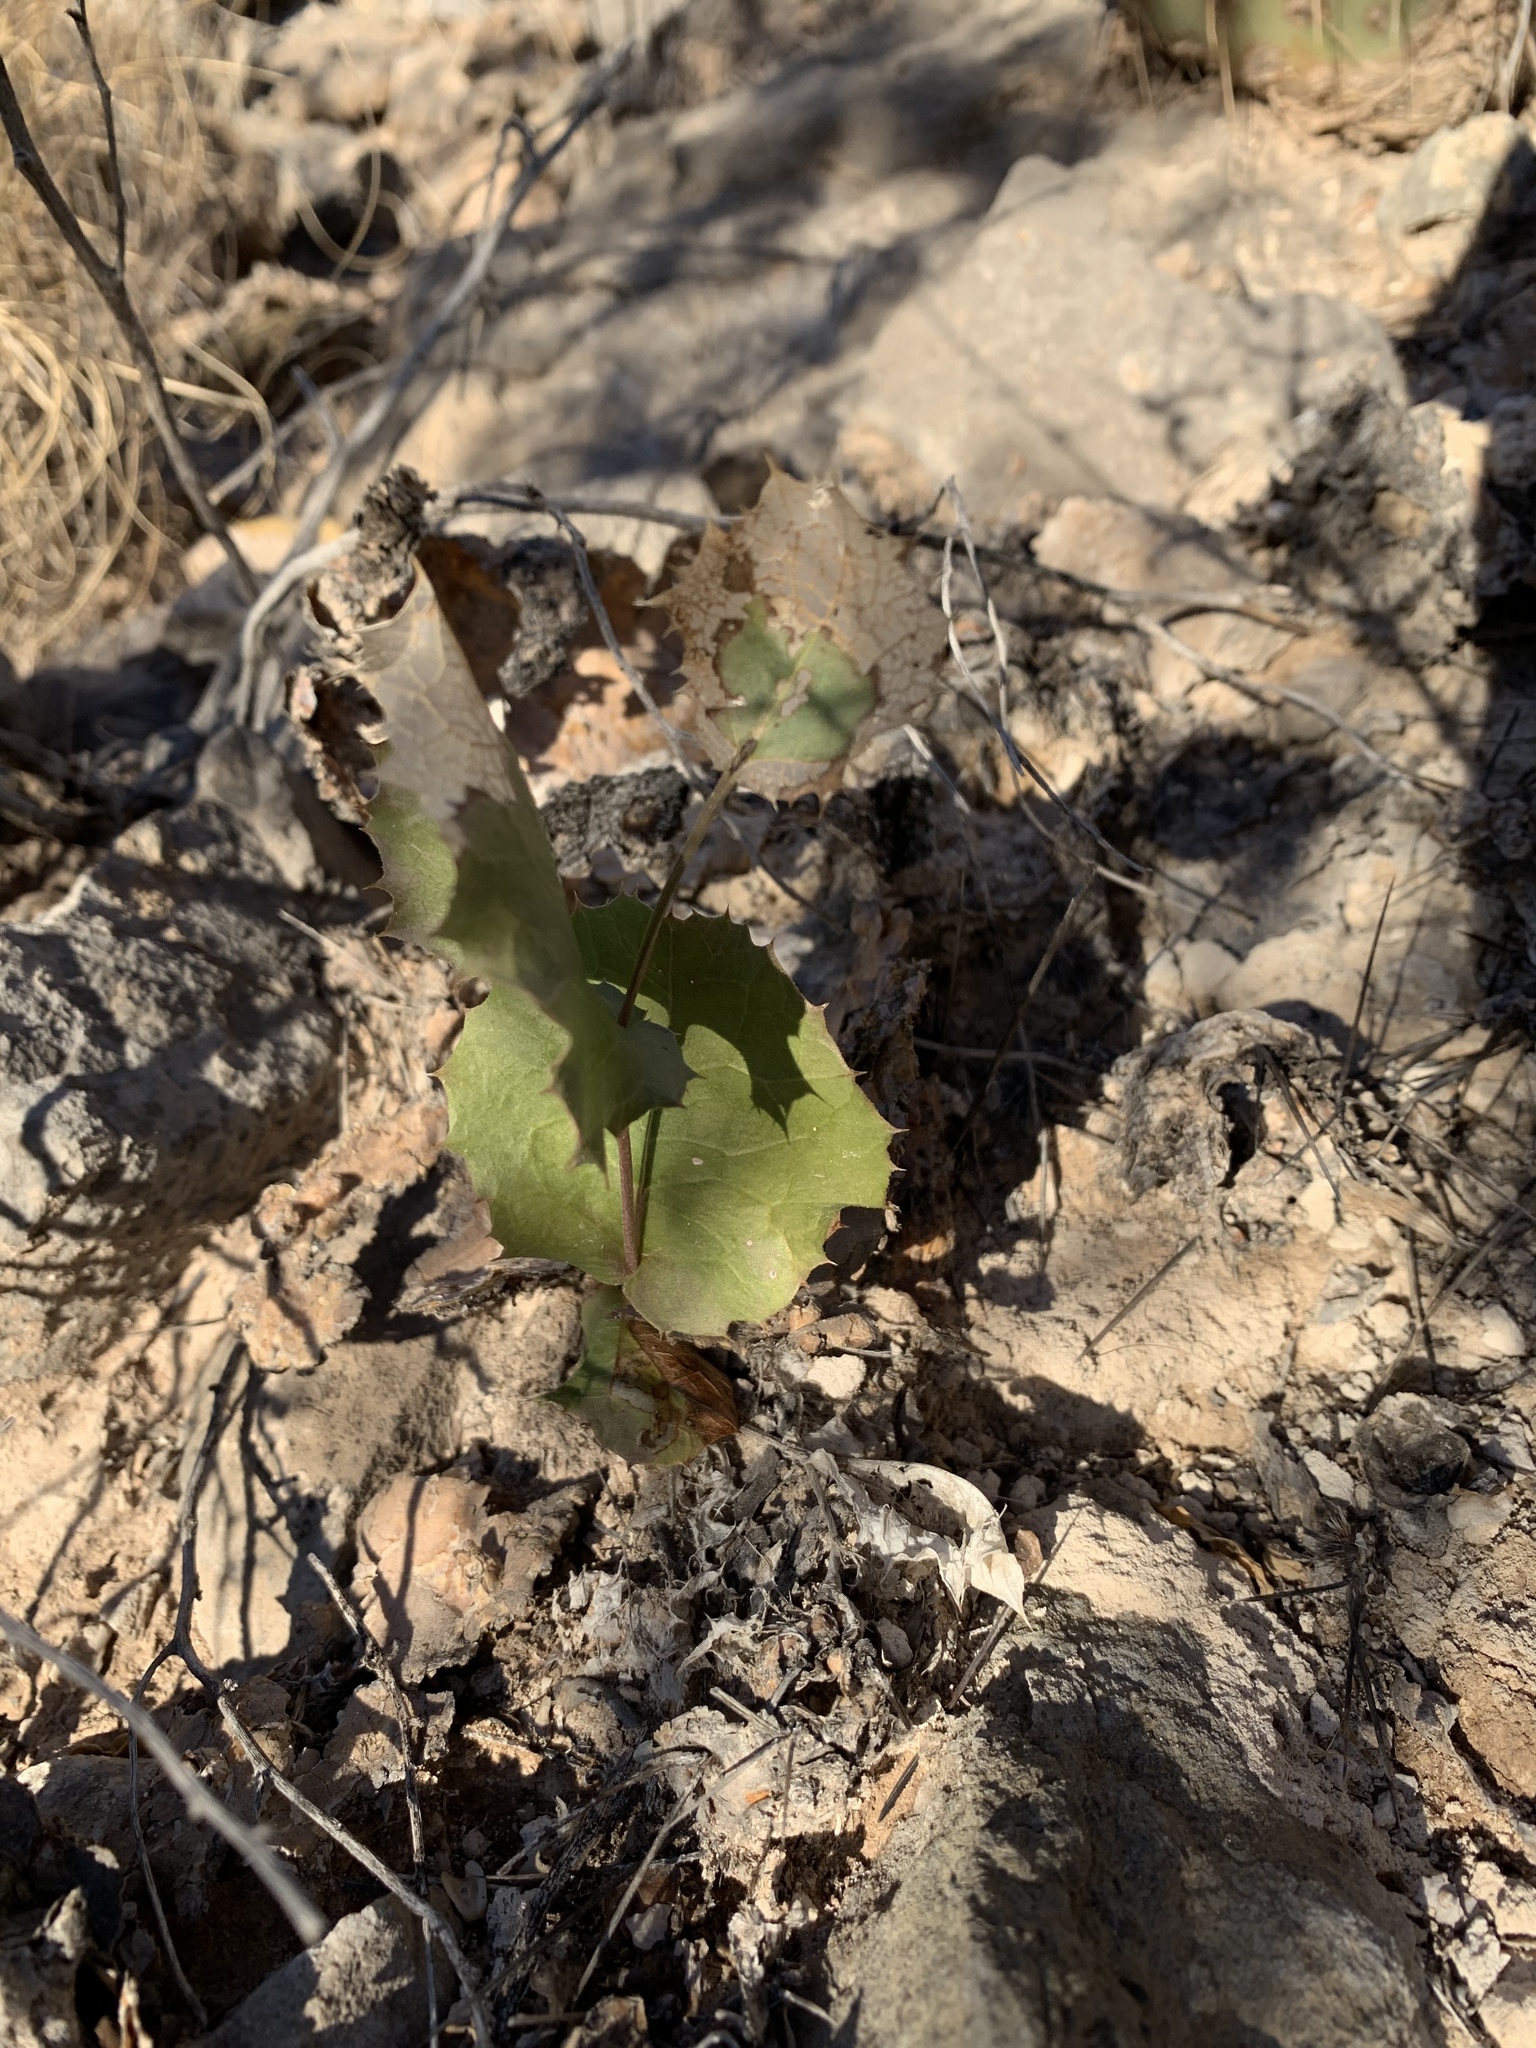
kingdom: Plantae
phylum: Tracheophyta
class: Magnoliopsida
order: Asterales
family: Asteraceae
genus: Acourtia
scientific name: Acourtia nana
